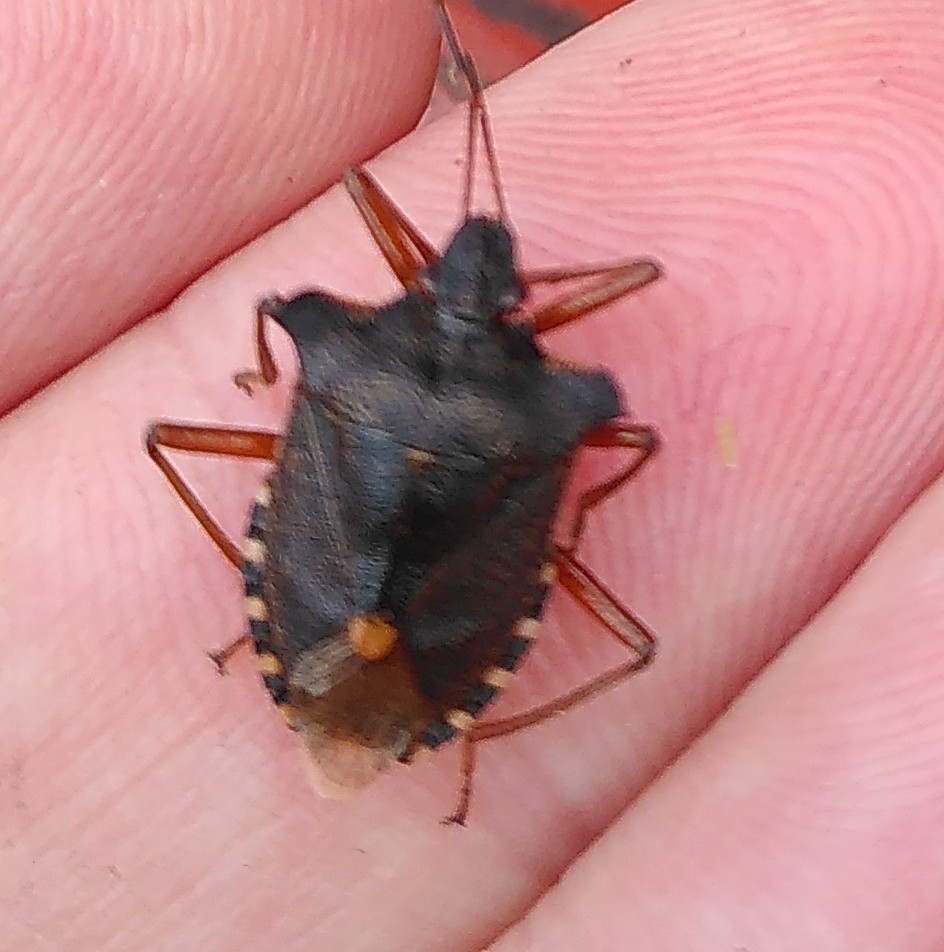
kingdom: Animalia
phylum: Arthropoda
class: Insecta
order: Hemiptera
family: Pentatomidae
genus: Pentatoma
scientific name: Pentatoma rufipes
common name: Forest bug
